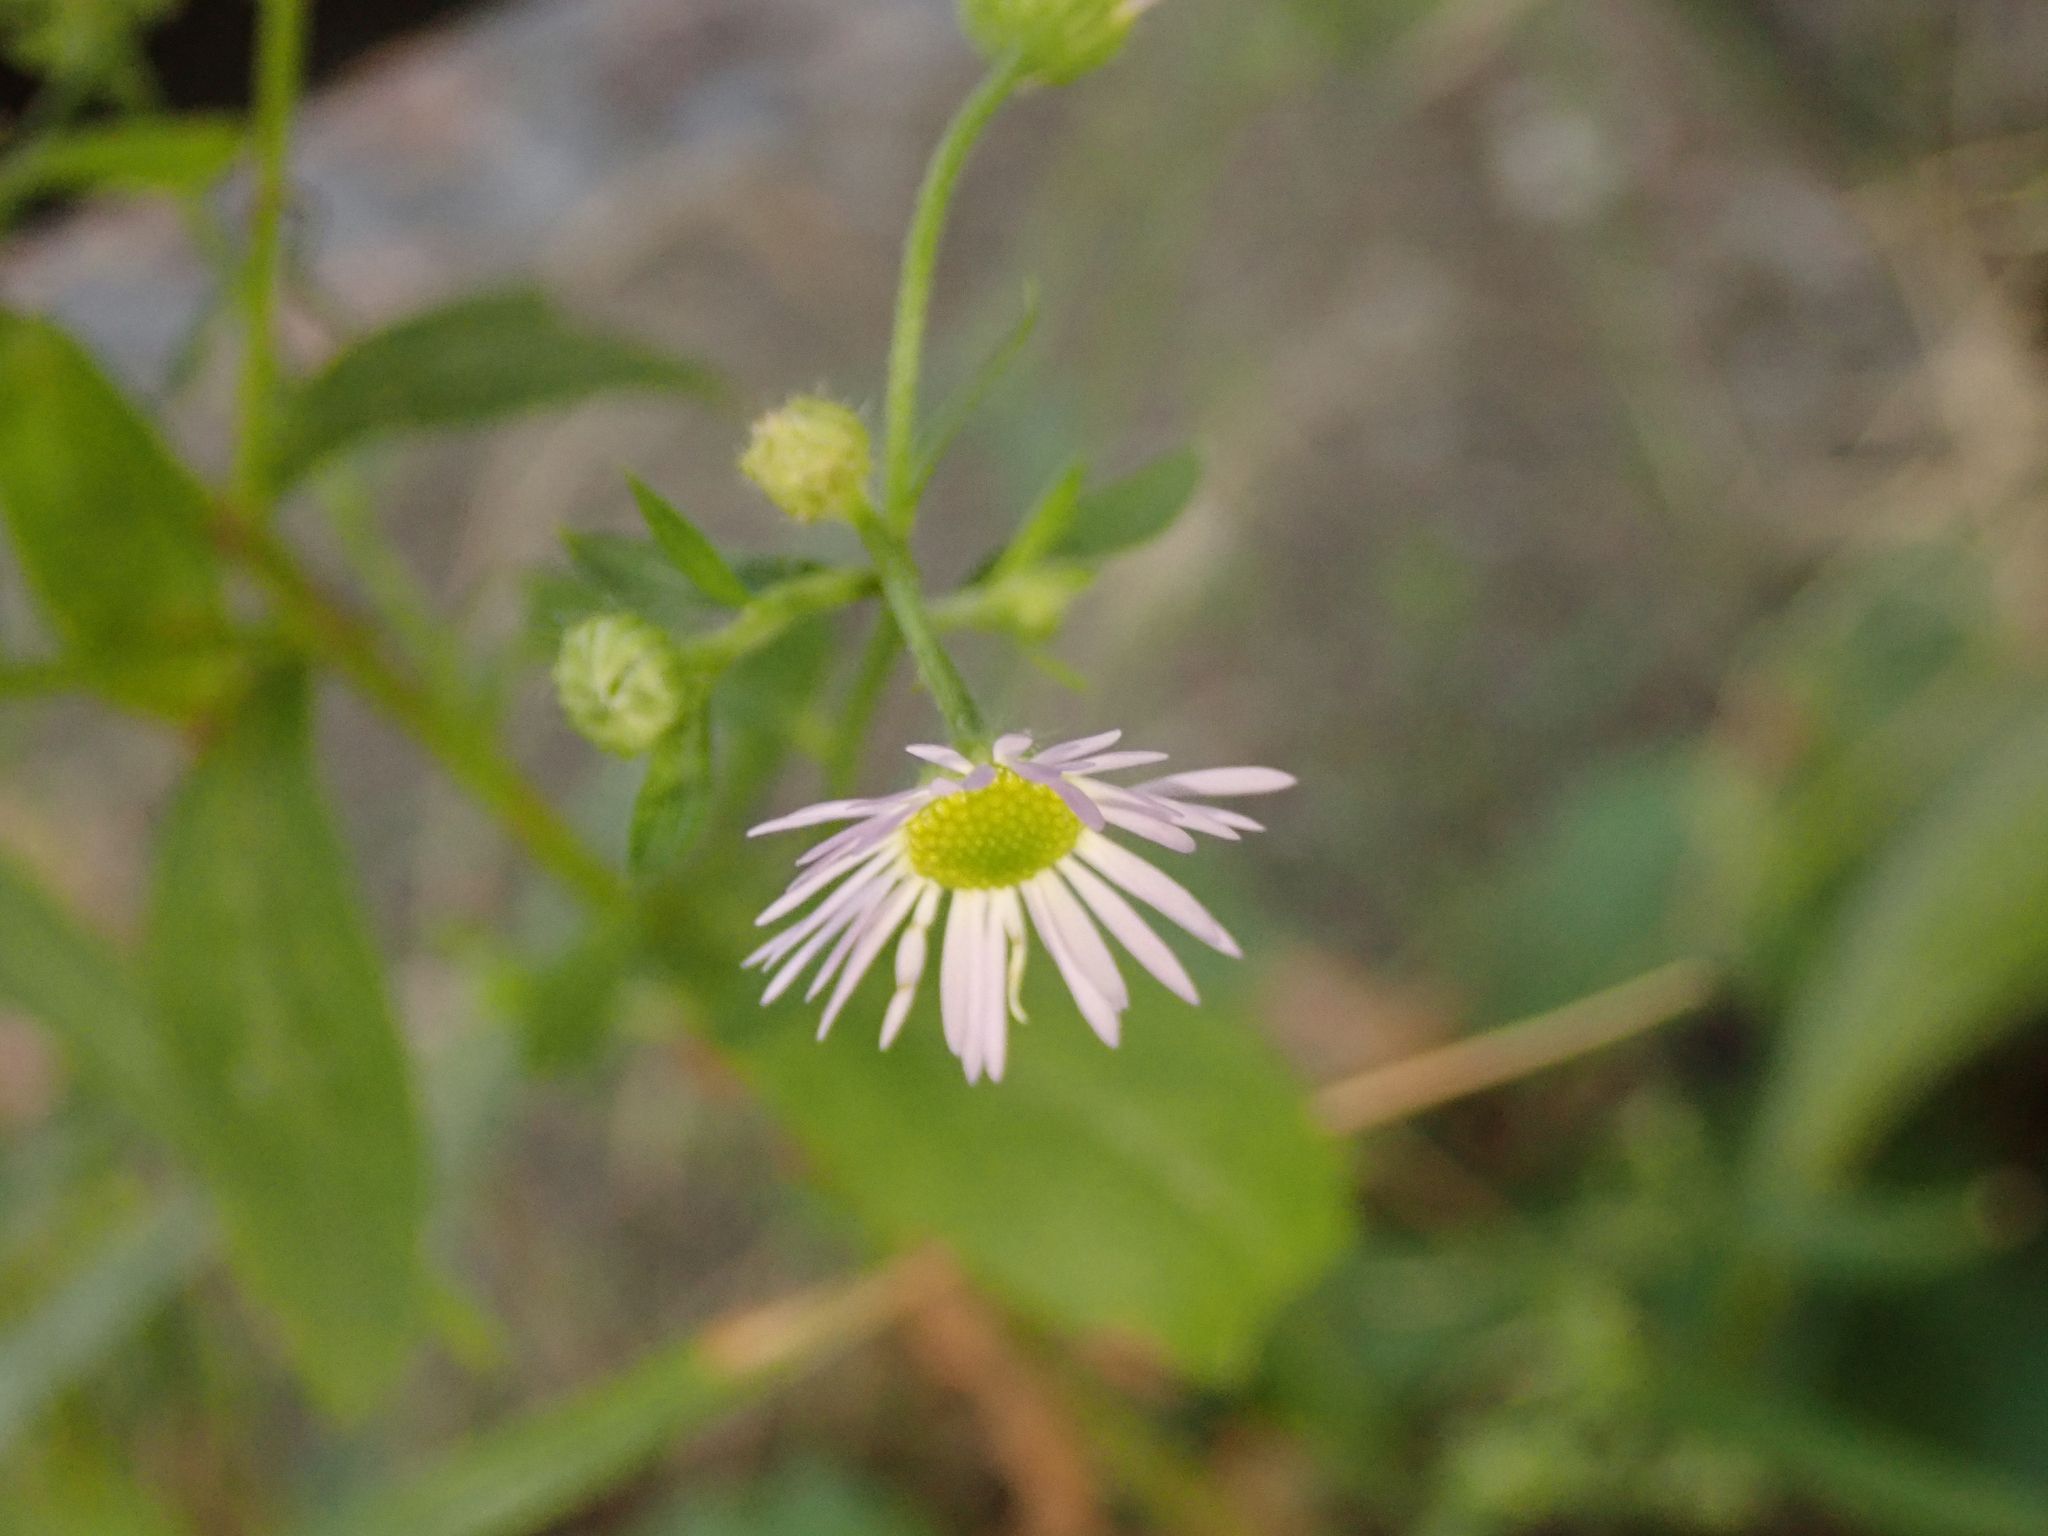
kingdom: Plantae
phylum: Tracheophyta
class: Magnoliopsida
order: Asterales
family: Asteraceae
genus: Erigeron
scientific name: Erigeron annuus
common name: Tall fleabane
